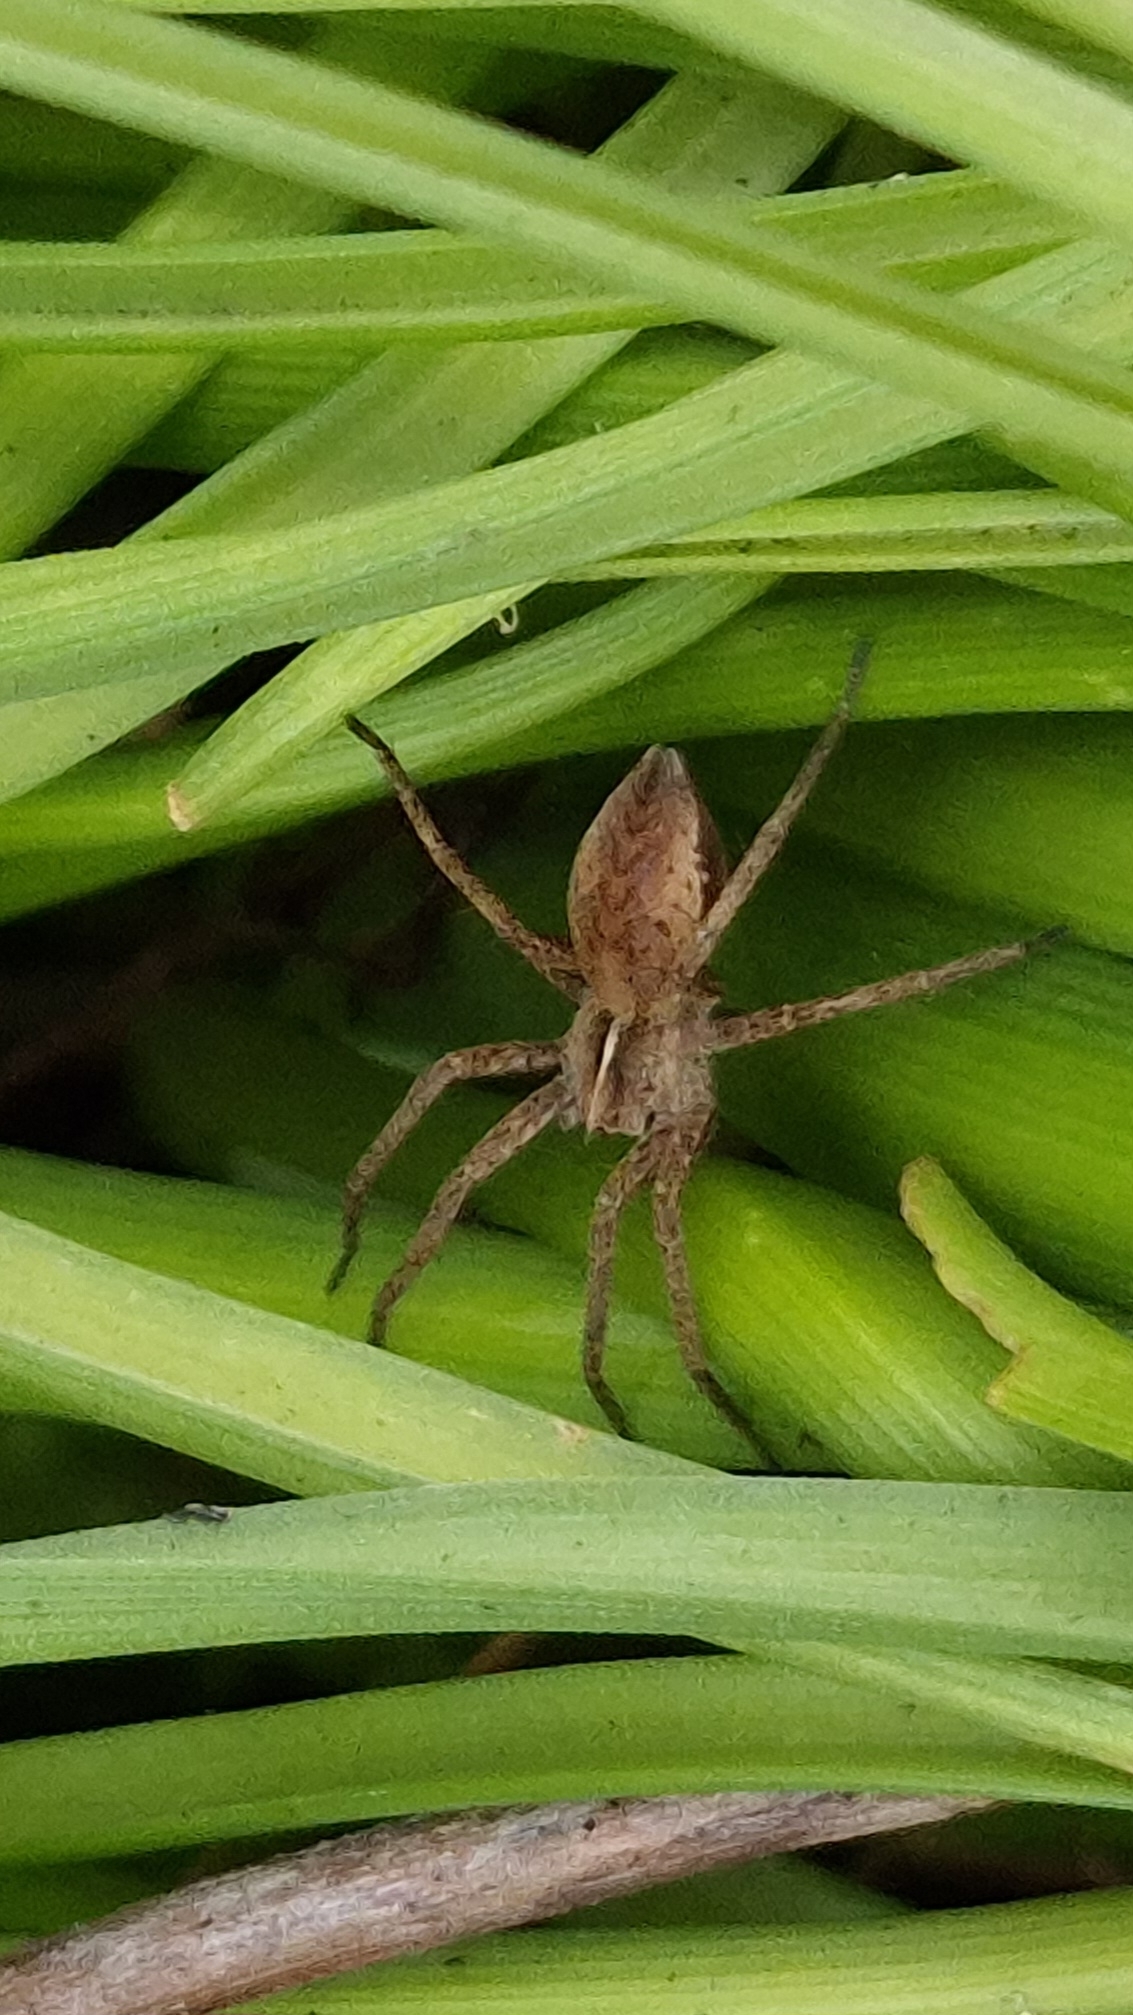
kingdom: Animalia
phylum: Arthropoda
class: Arachnida
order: Araneae
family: Pisauridae
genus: Pisaura
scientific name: Pisaura mirabilis
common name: Tent spider
